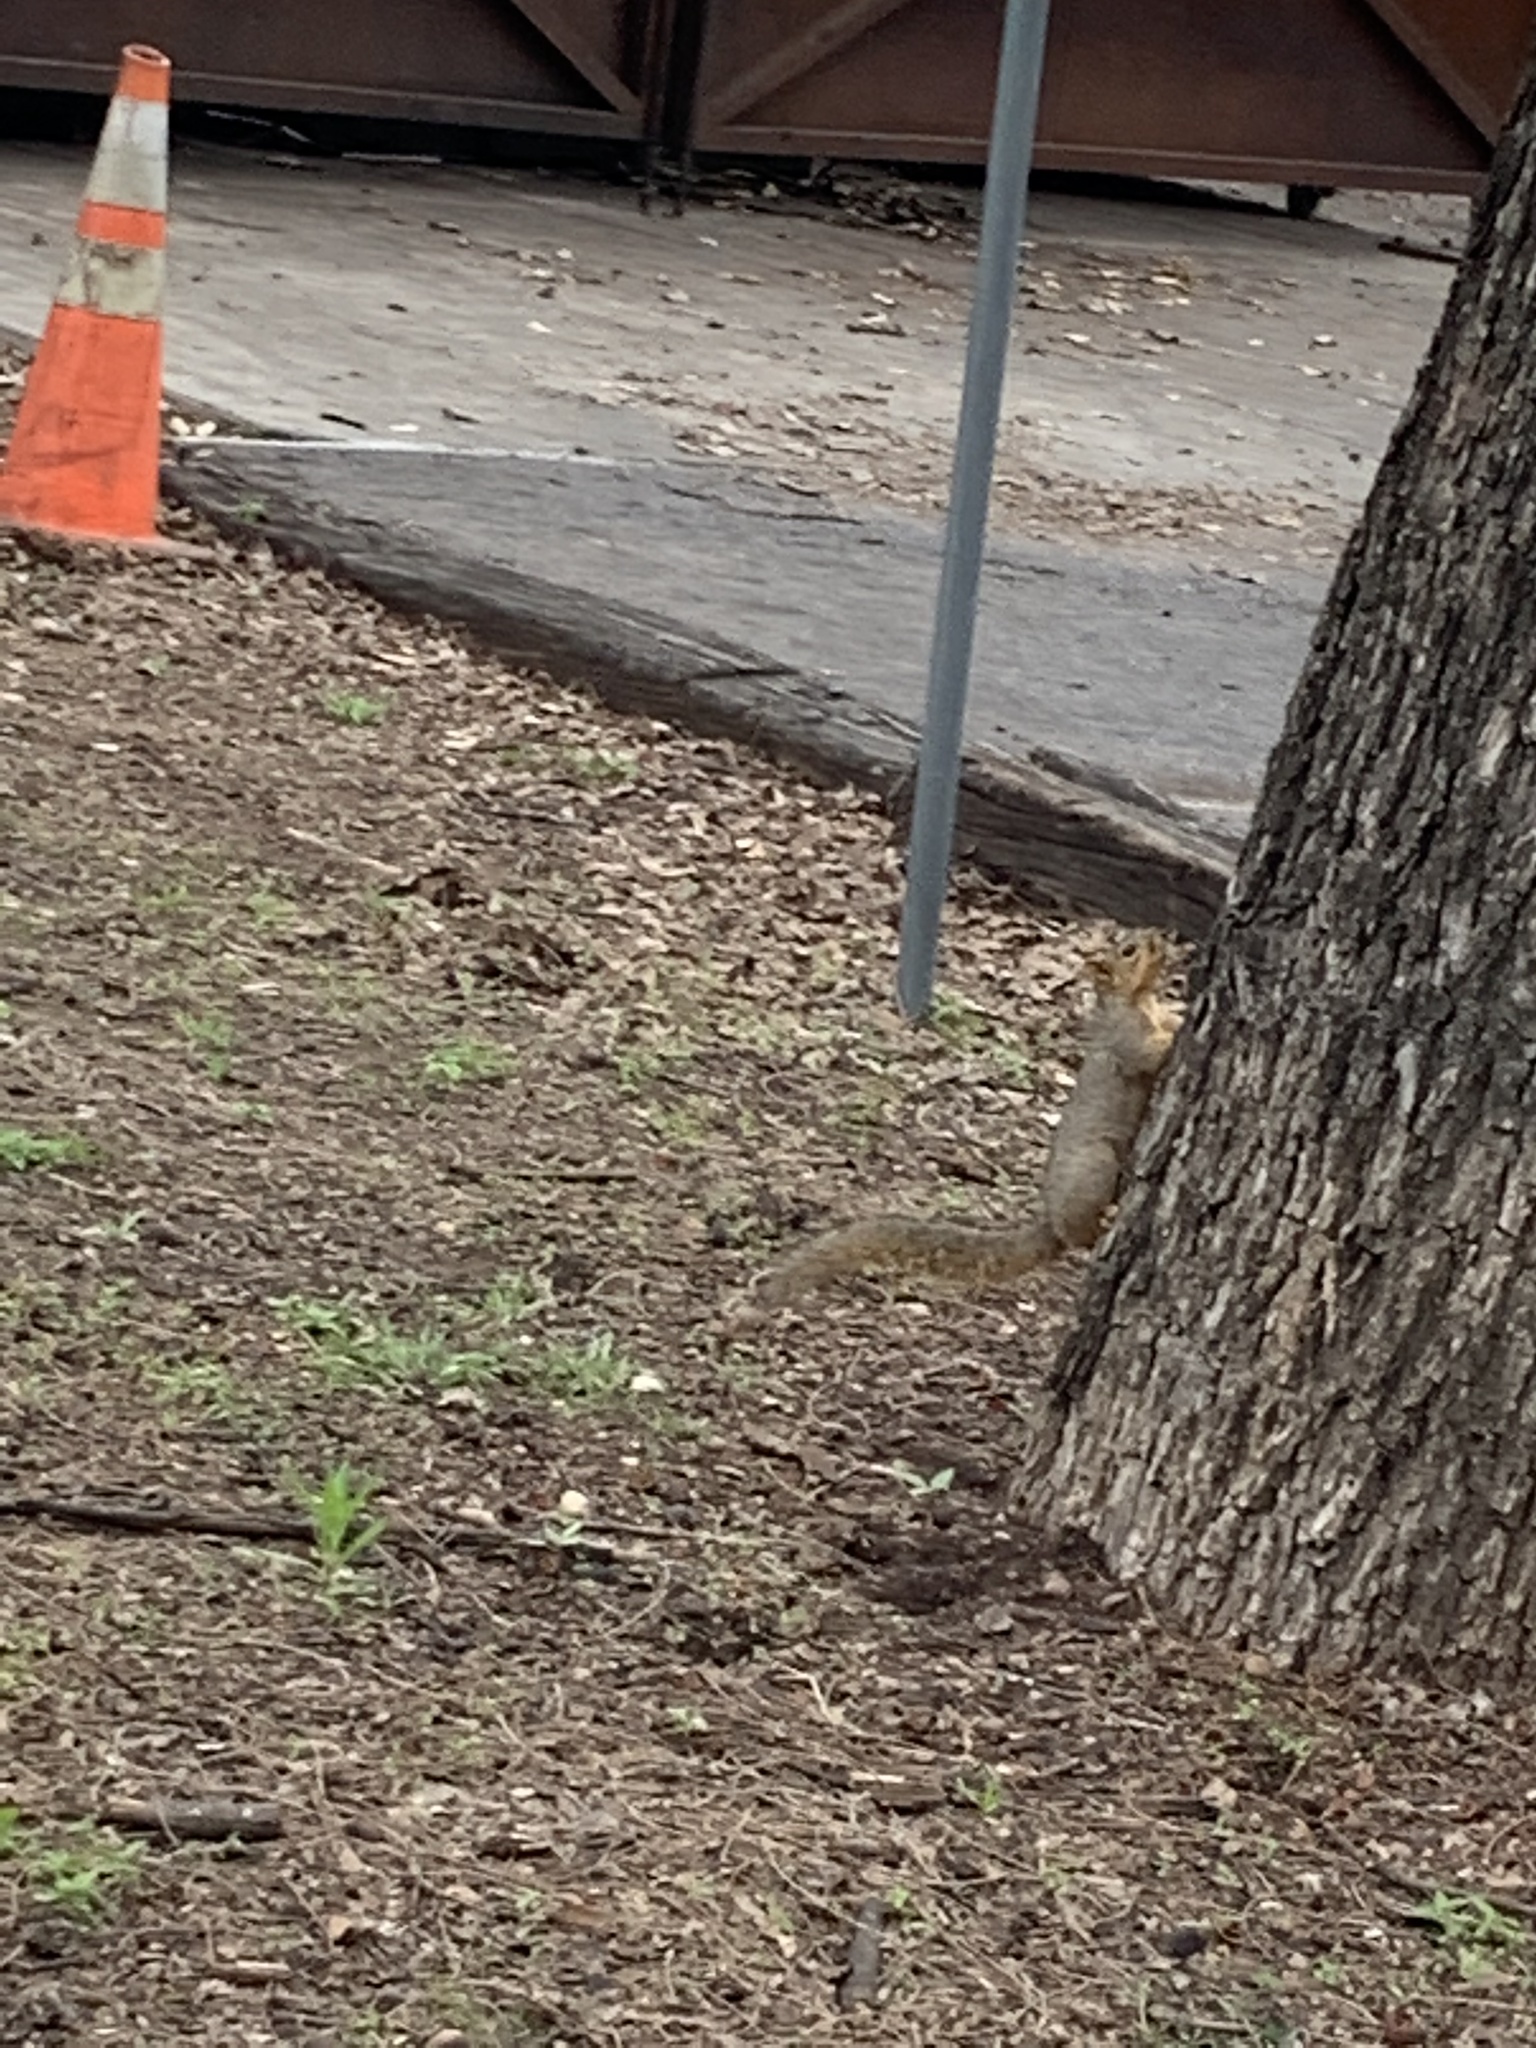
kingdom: Animalia
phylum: Chordata
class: Mammalia
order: Rodentia
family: Sciuridae
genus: Sciurus
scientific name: Sciurus niger
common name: Fox squirrel
